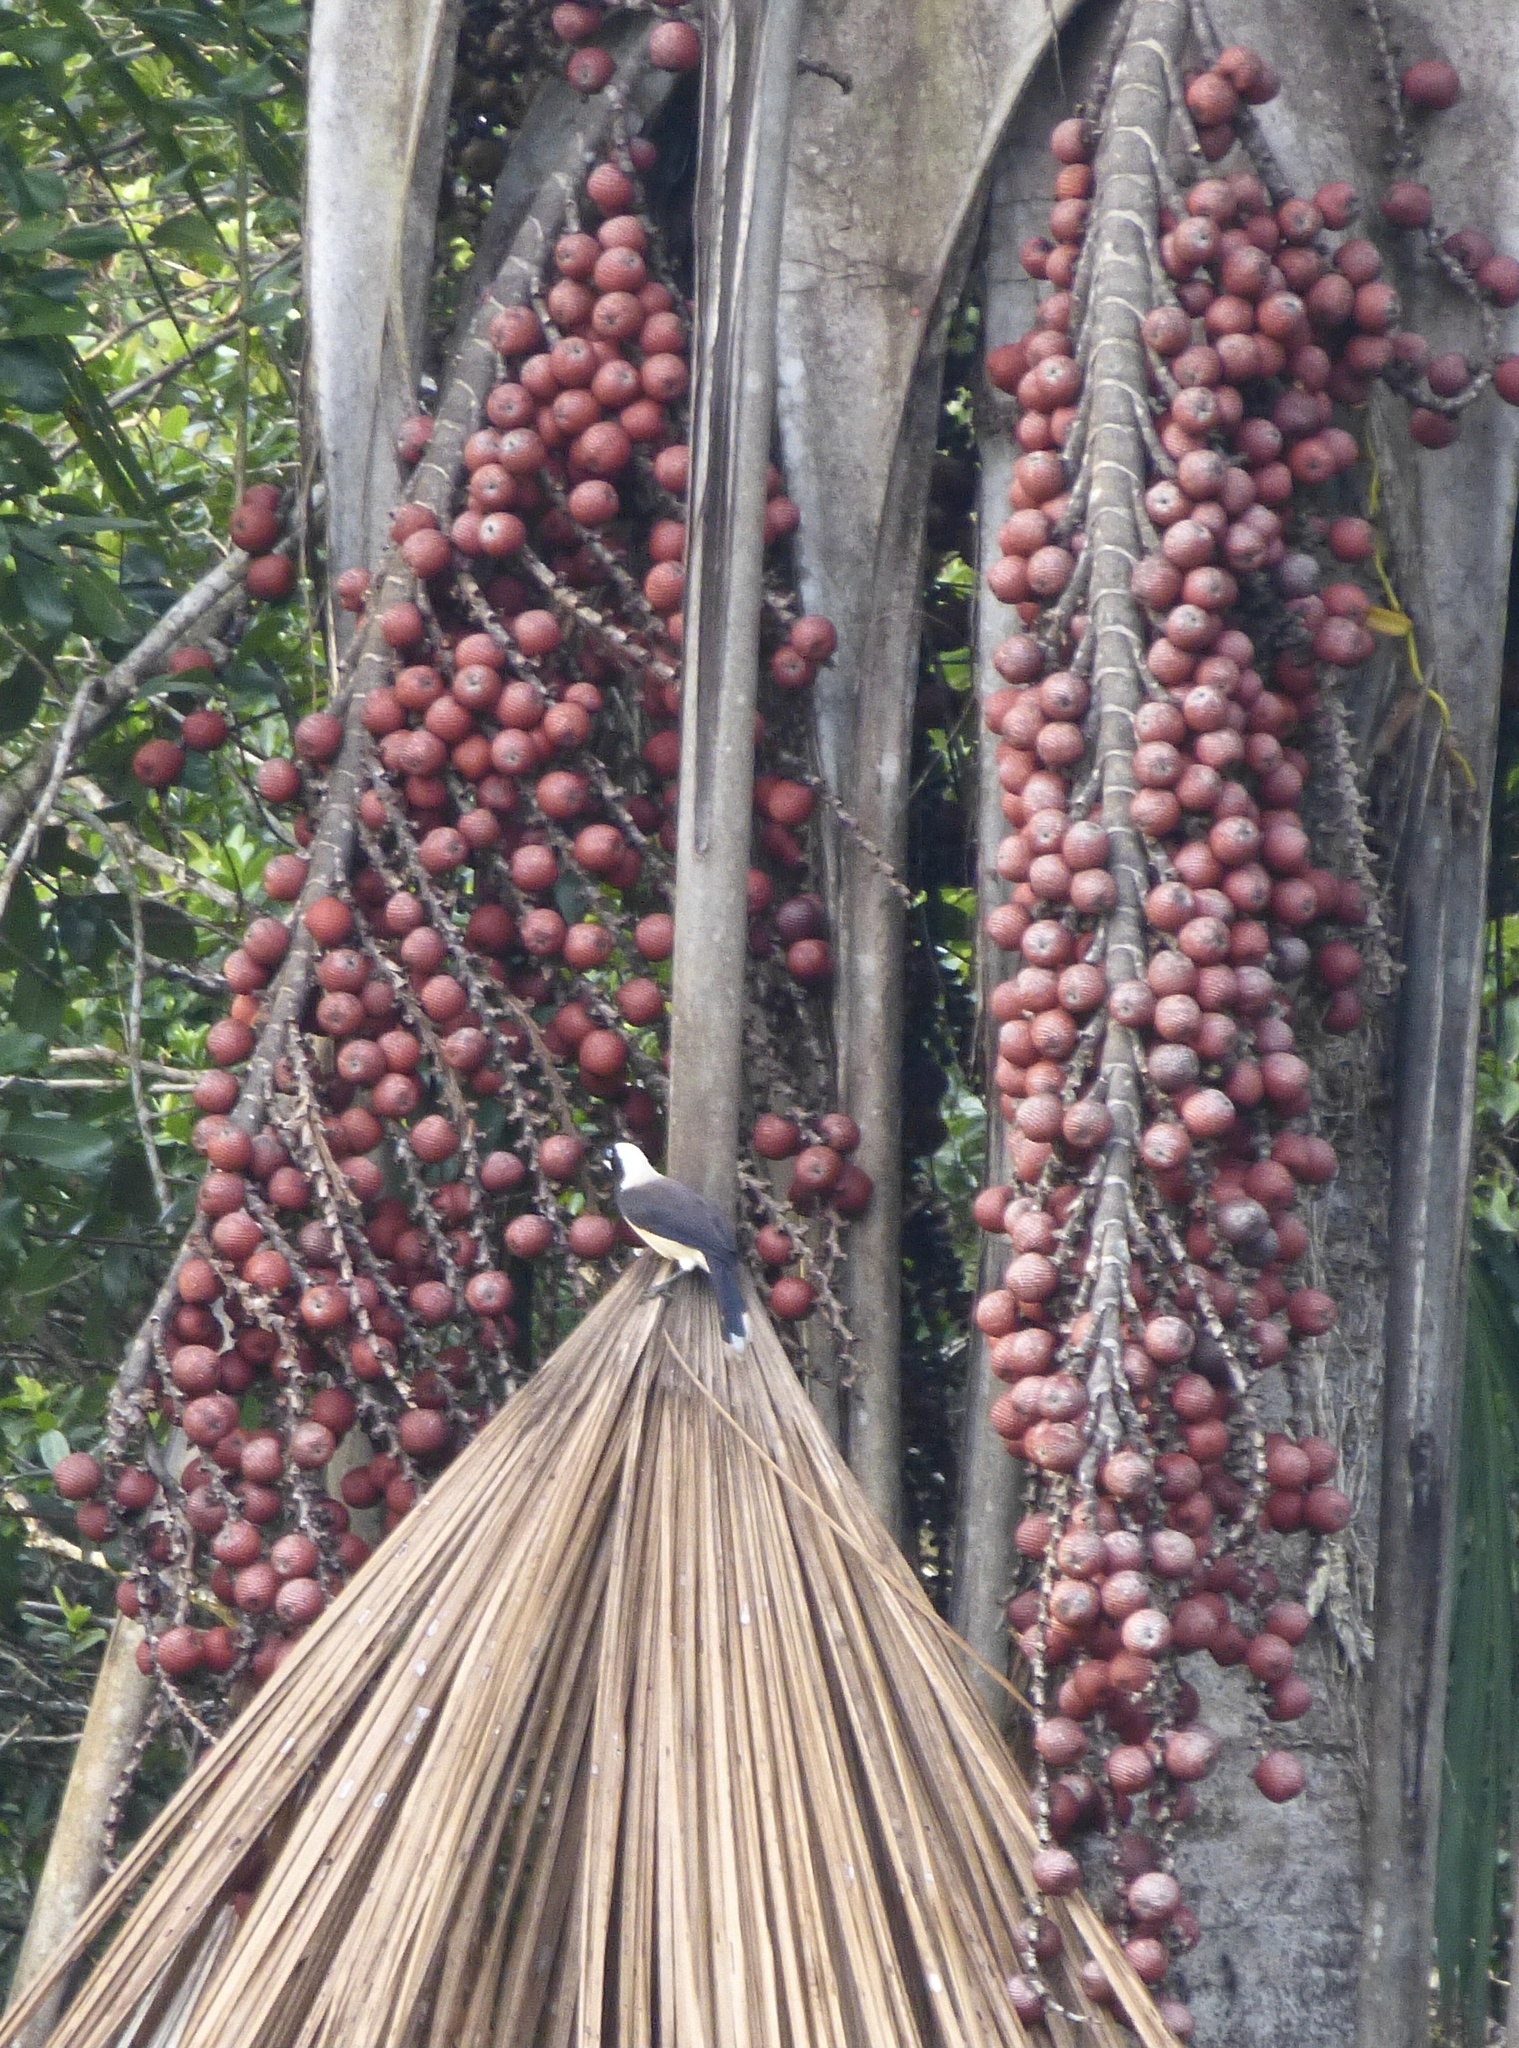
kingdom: Animalia
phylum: Chordata
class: Aves
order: Passeriformes
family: Corvidae
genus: Cyanocorax
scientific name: Cyanocorax cayanus
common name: Cayenne jay
